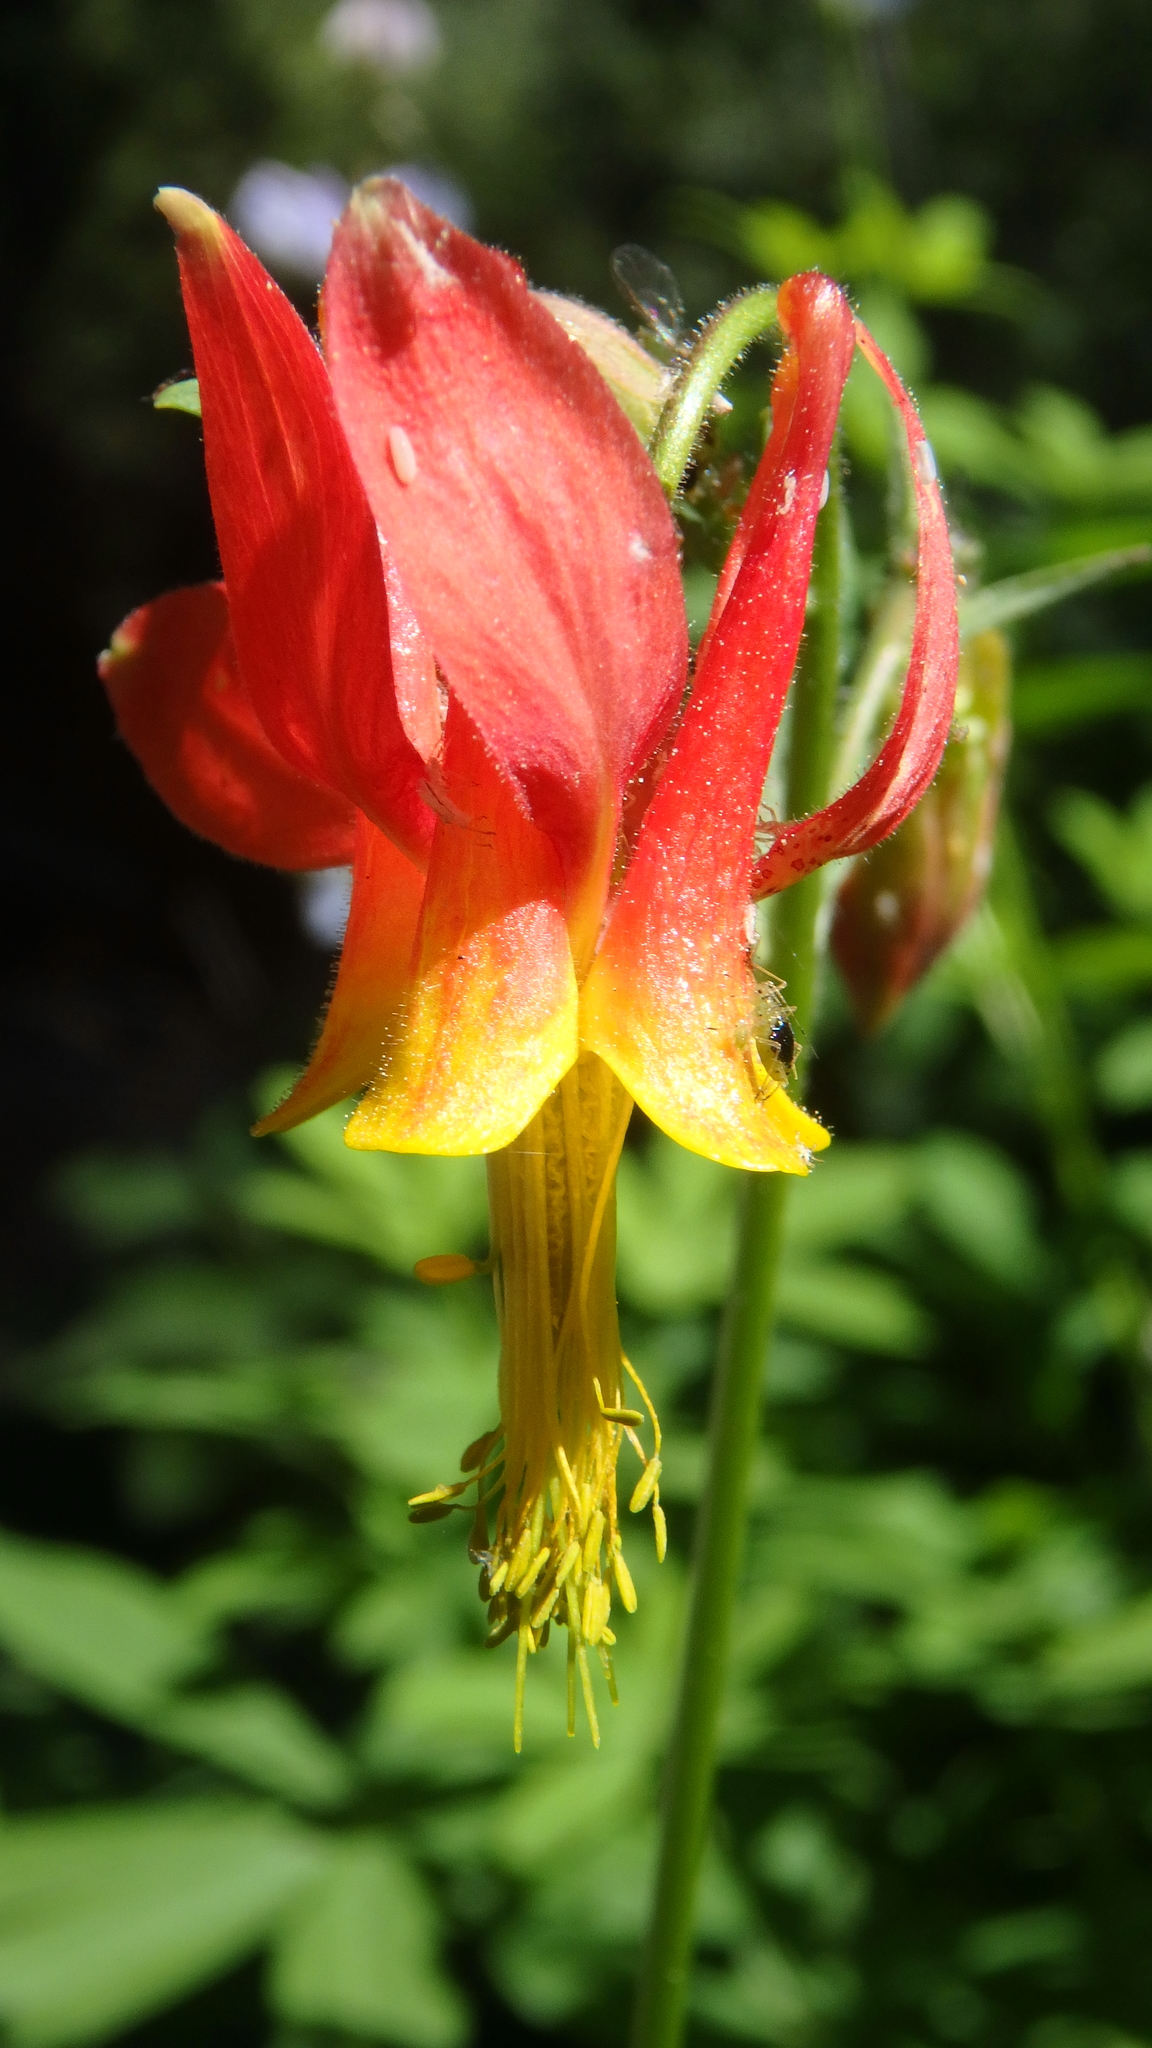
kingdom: Plantae
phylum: Tracheophyta
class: Magnoliopsida
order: Ranunculales
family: Ranunculaceae
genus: Aquilegia
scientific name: Aquilegia formosa
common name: Sitka columbine
